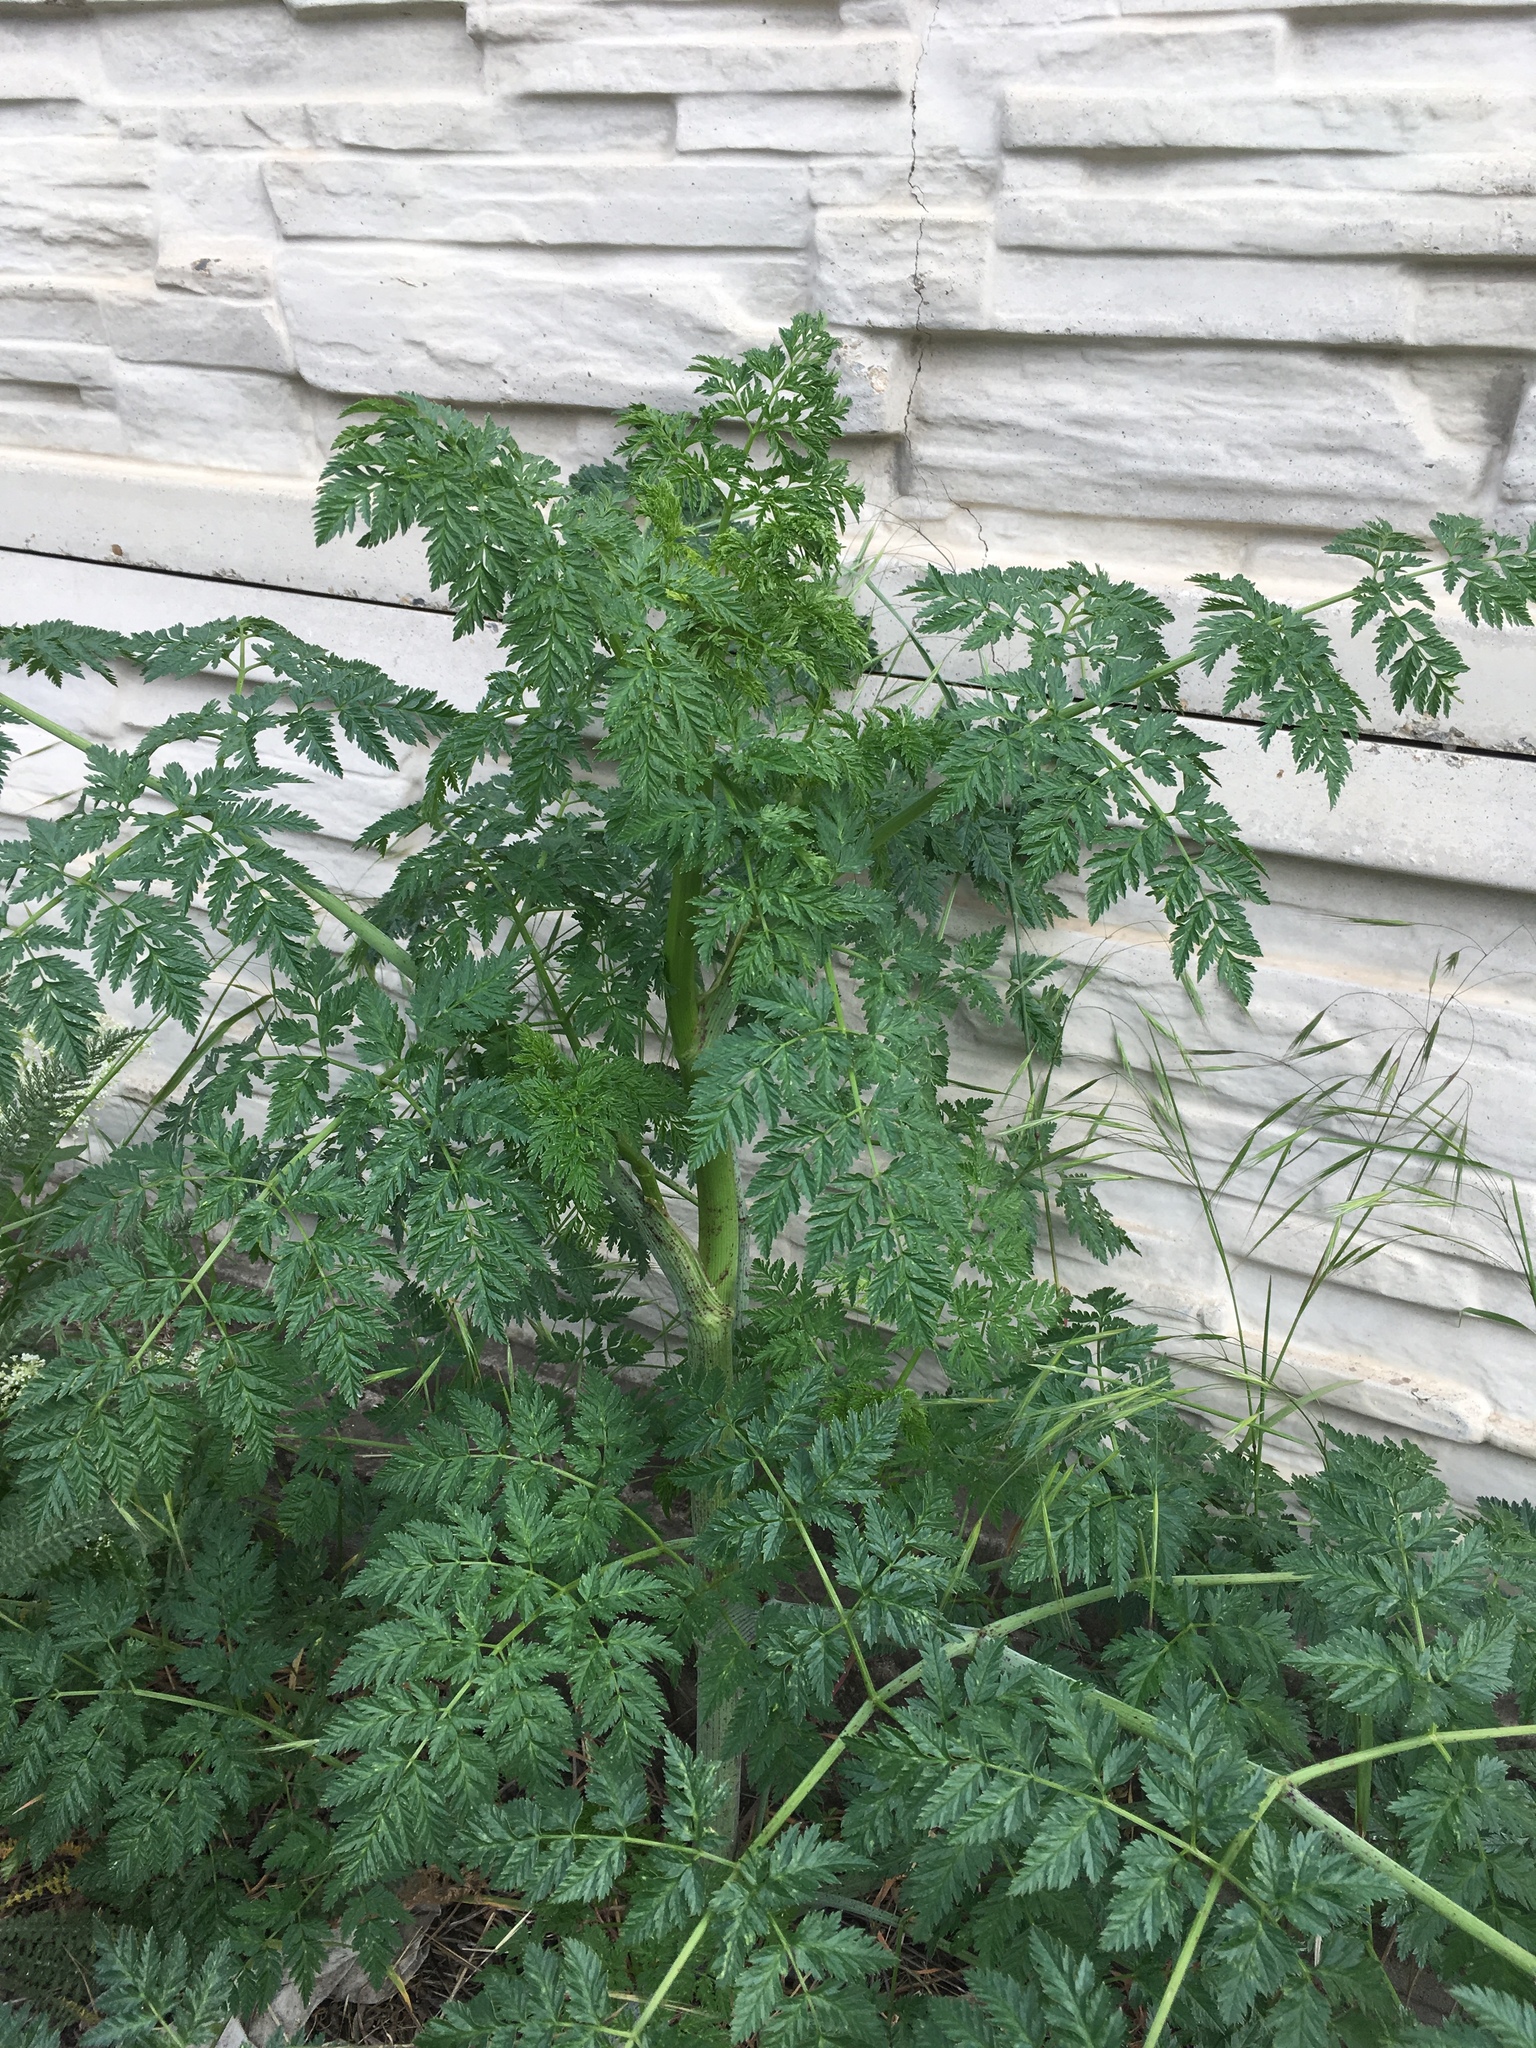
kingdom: Plantae
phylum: Tracheophyta
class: Magnoliopsida
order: Apiales
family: Apiaceae
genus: Conium
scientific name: Conium maculatum
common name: Hemlock
